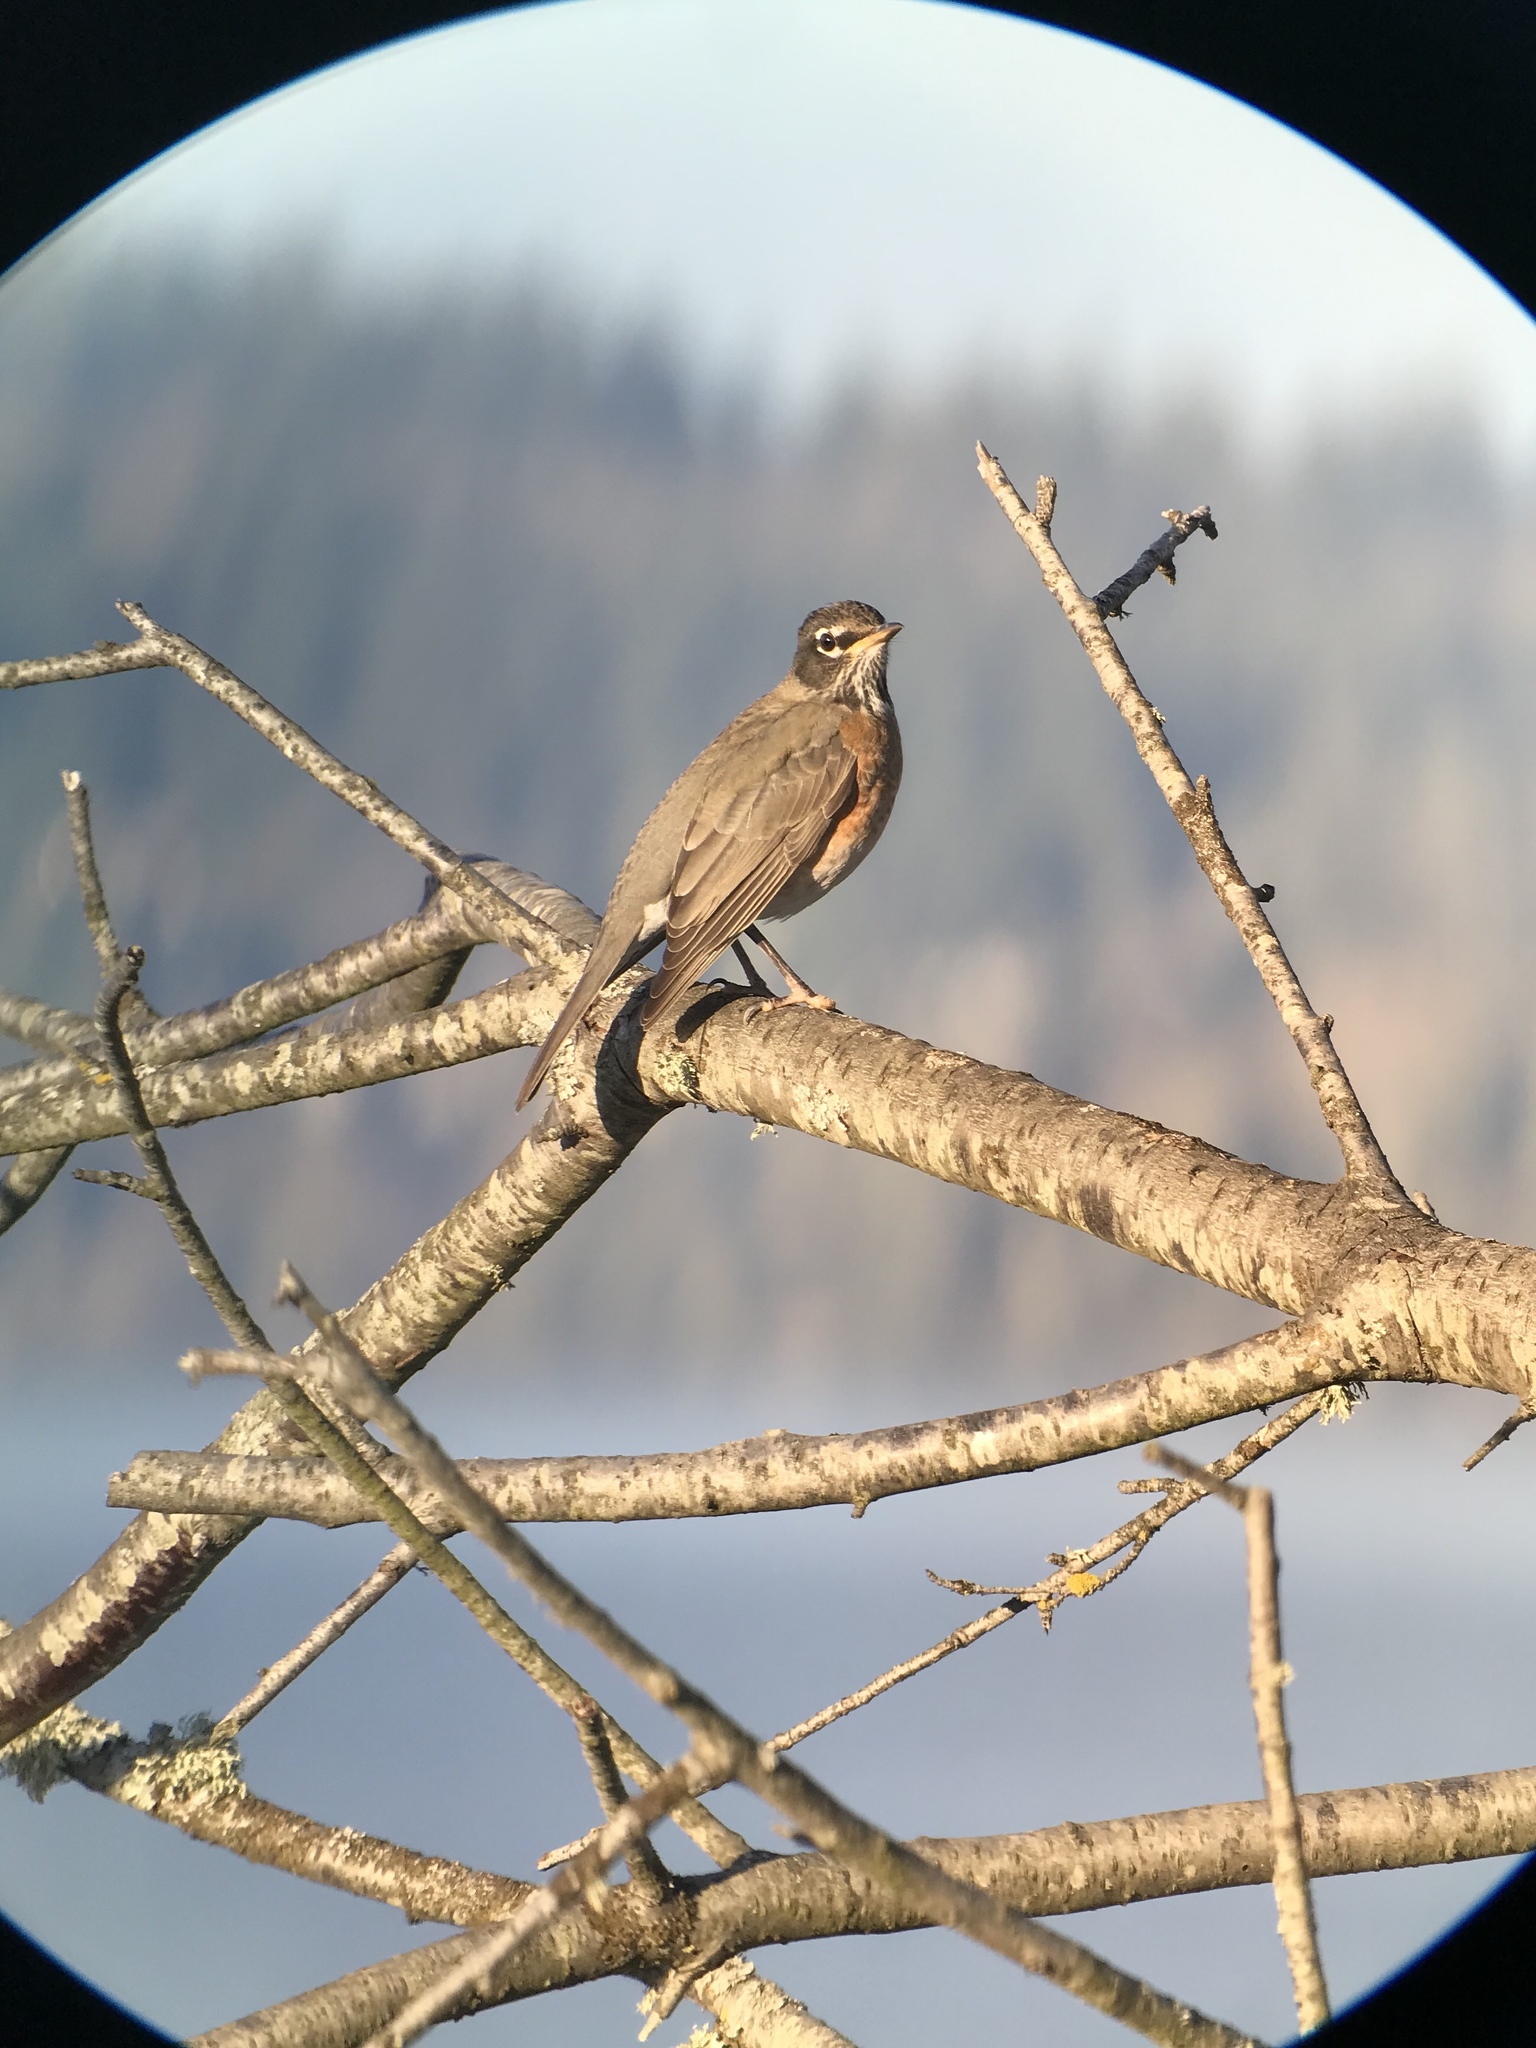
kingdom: Animalia
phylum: Chordata
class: Aves
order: Passeriformes
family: Turdidae
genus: Turdus
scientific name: Turdus migratorius
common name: American robin
